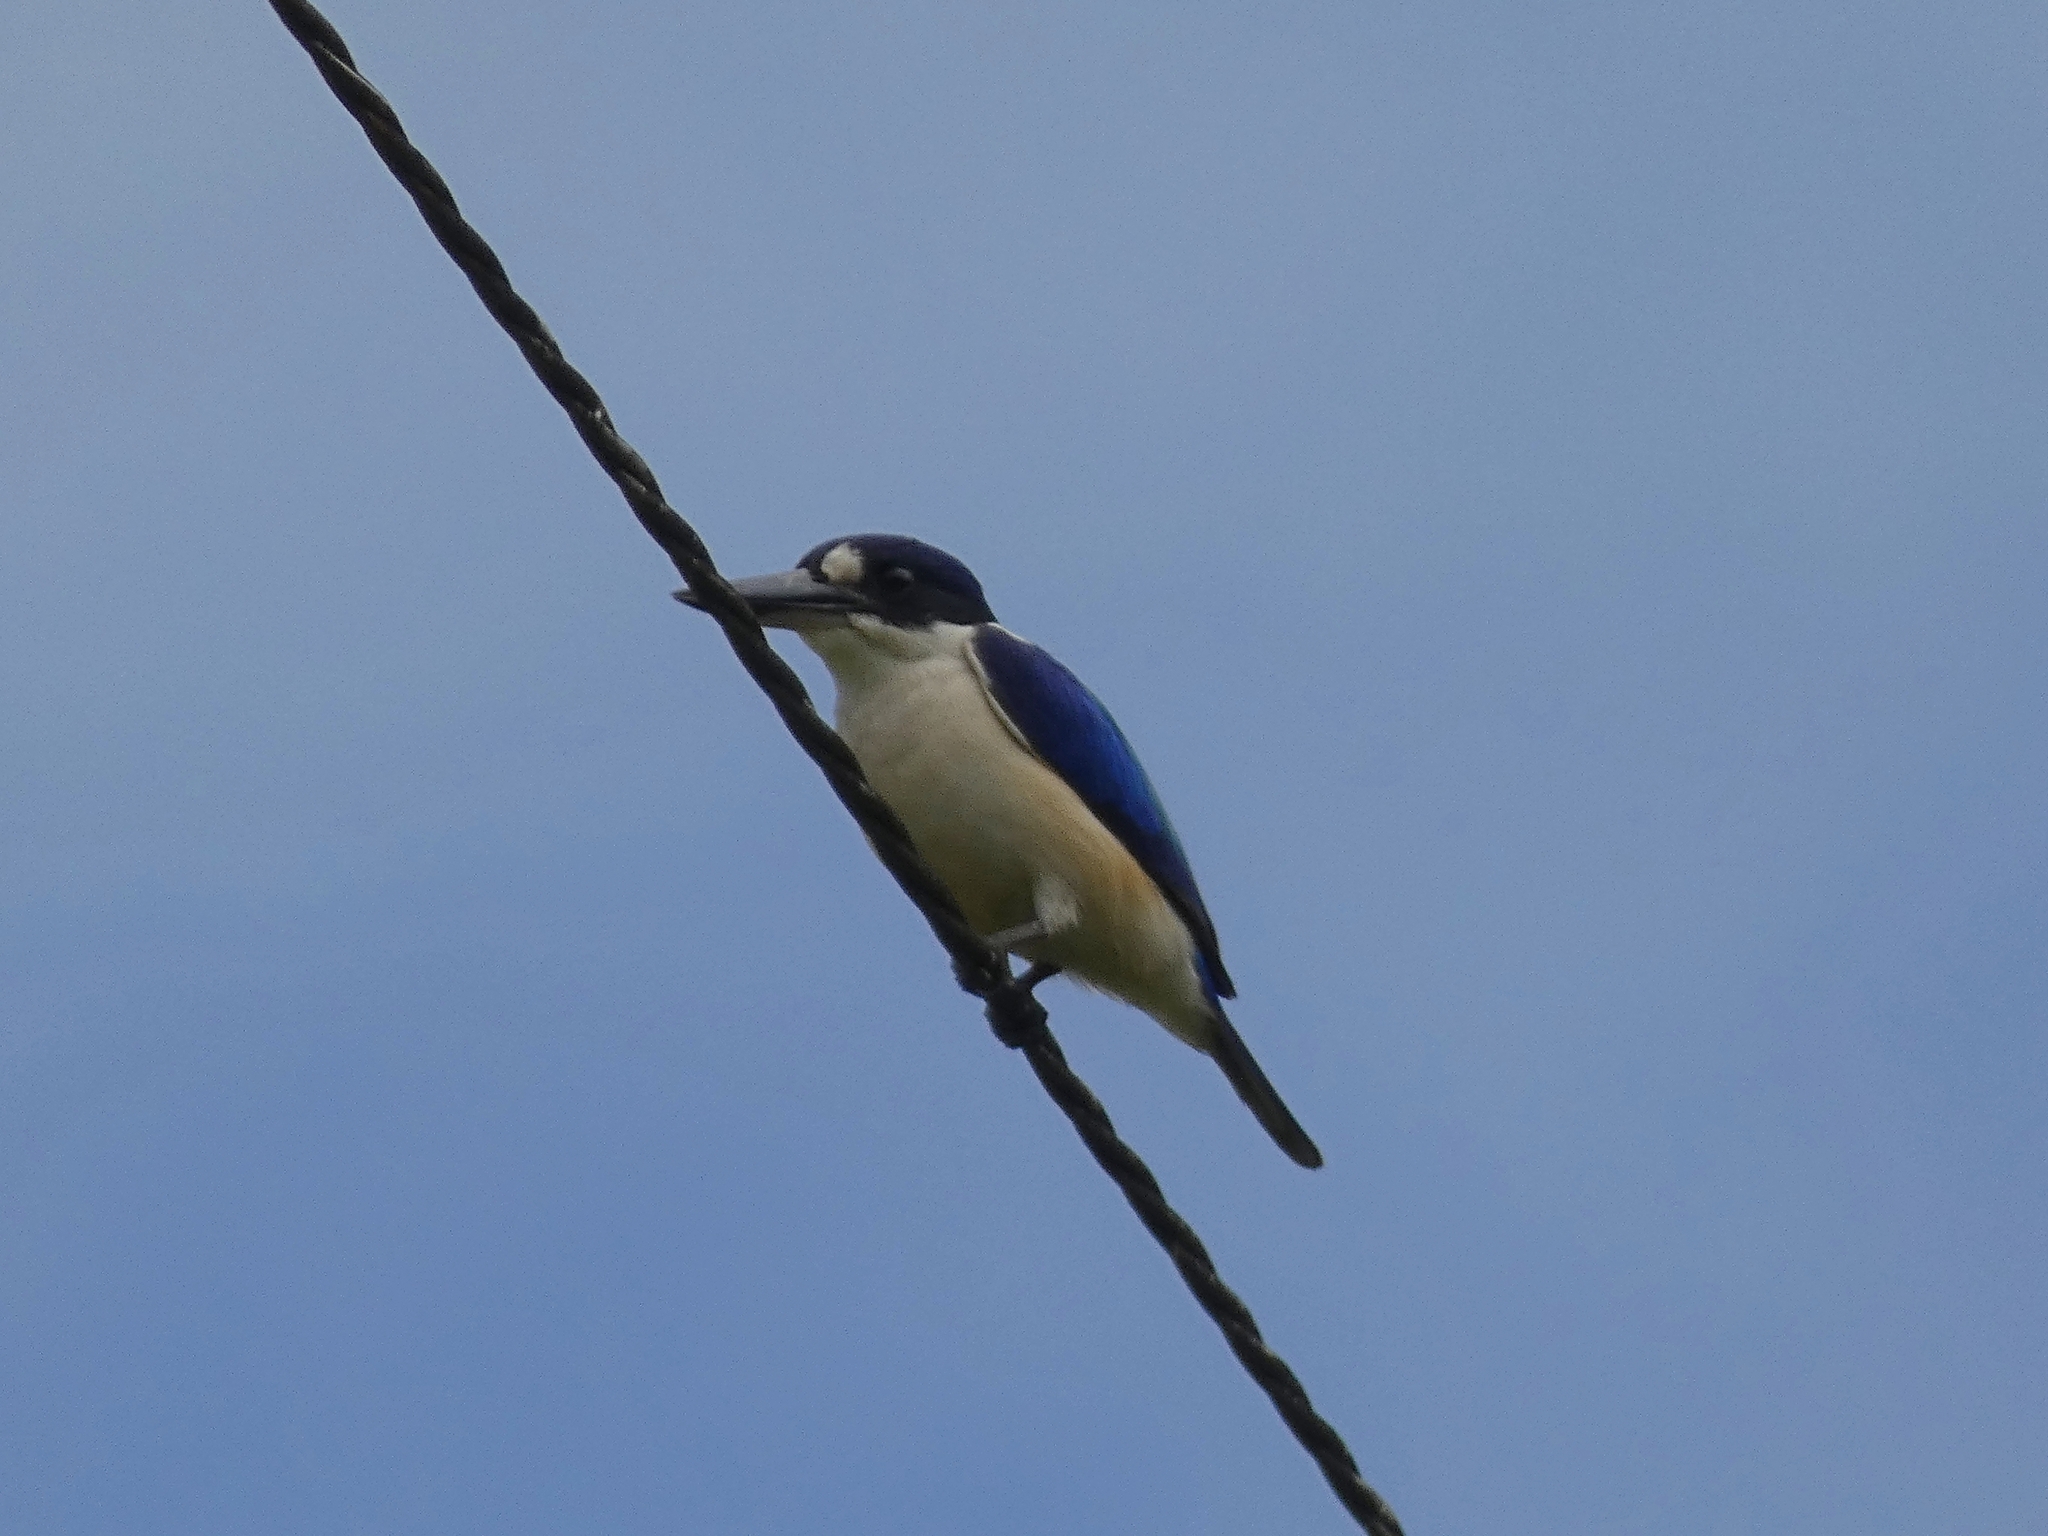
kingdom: Animalia
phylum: Chordata
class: Aves
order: Coraciiformes
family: Alcedinidae
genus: Todiramphus
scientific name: Todiramphus macleayii
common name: Forest kingfisher
